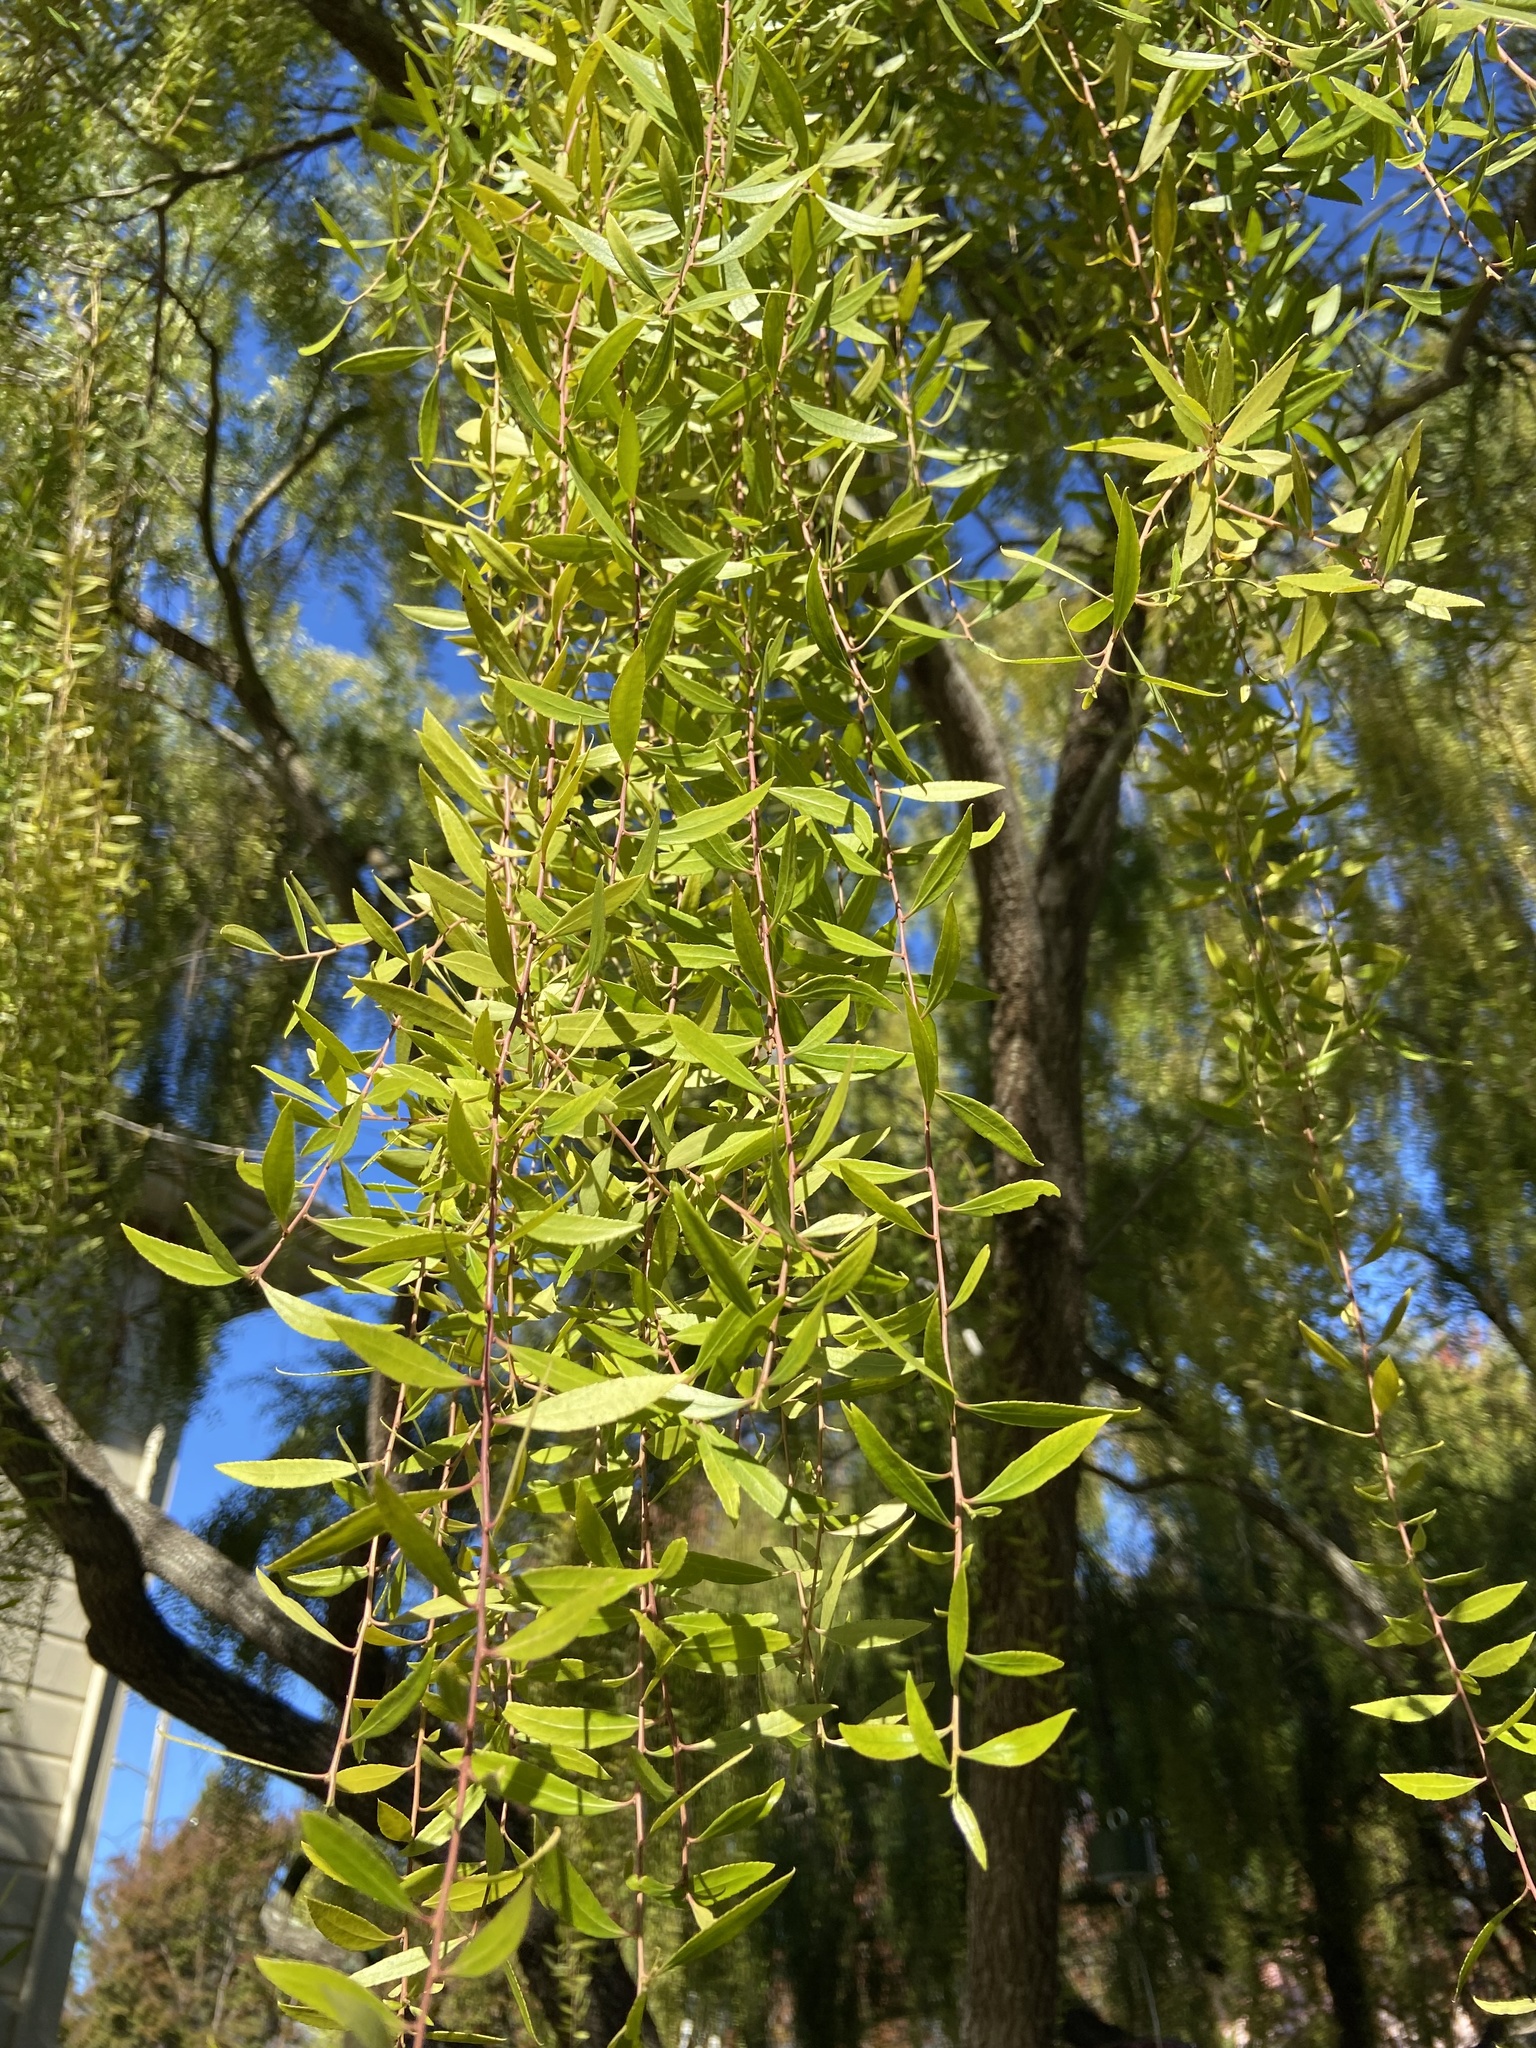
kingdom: Plantae
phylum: Tracheophyta
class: Magnoliopsida
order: Sapindales
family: Anacardiaceae
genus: Schinus
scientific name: Schinus molle
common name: Peruvian peppertree
